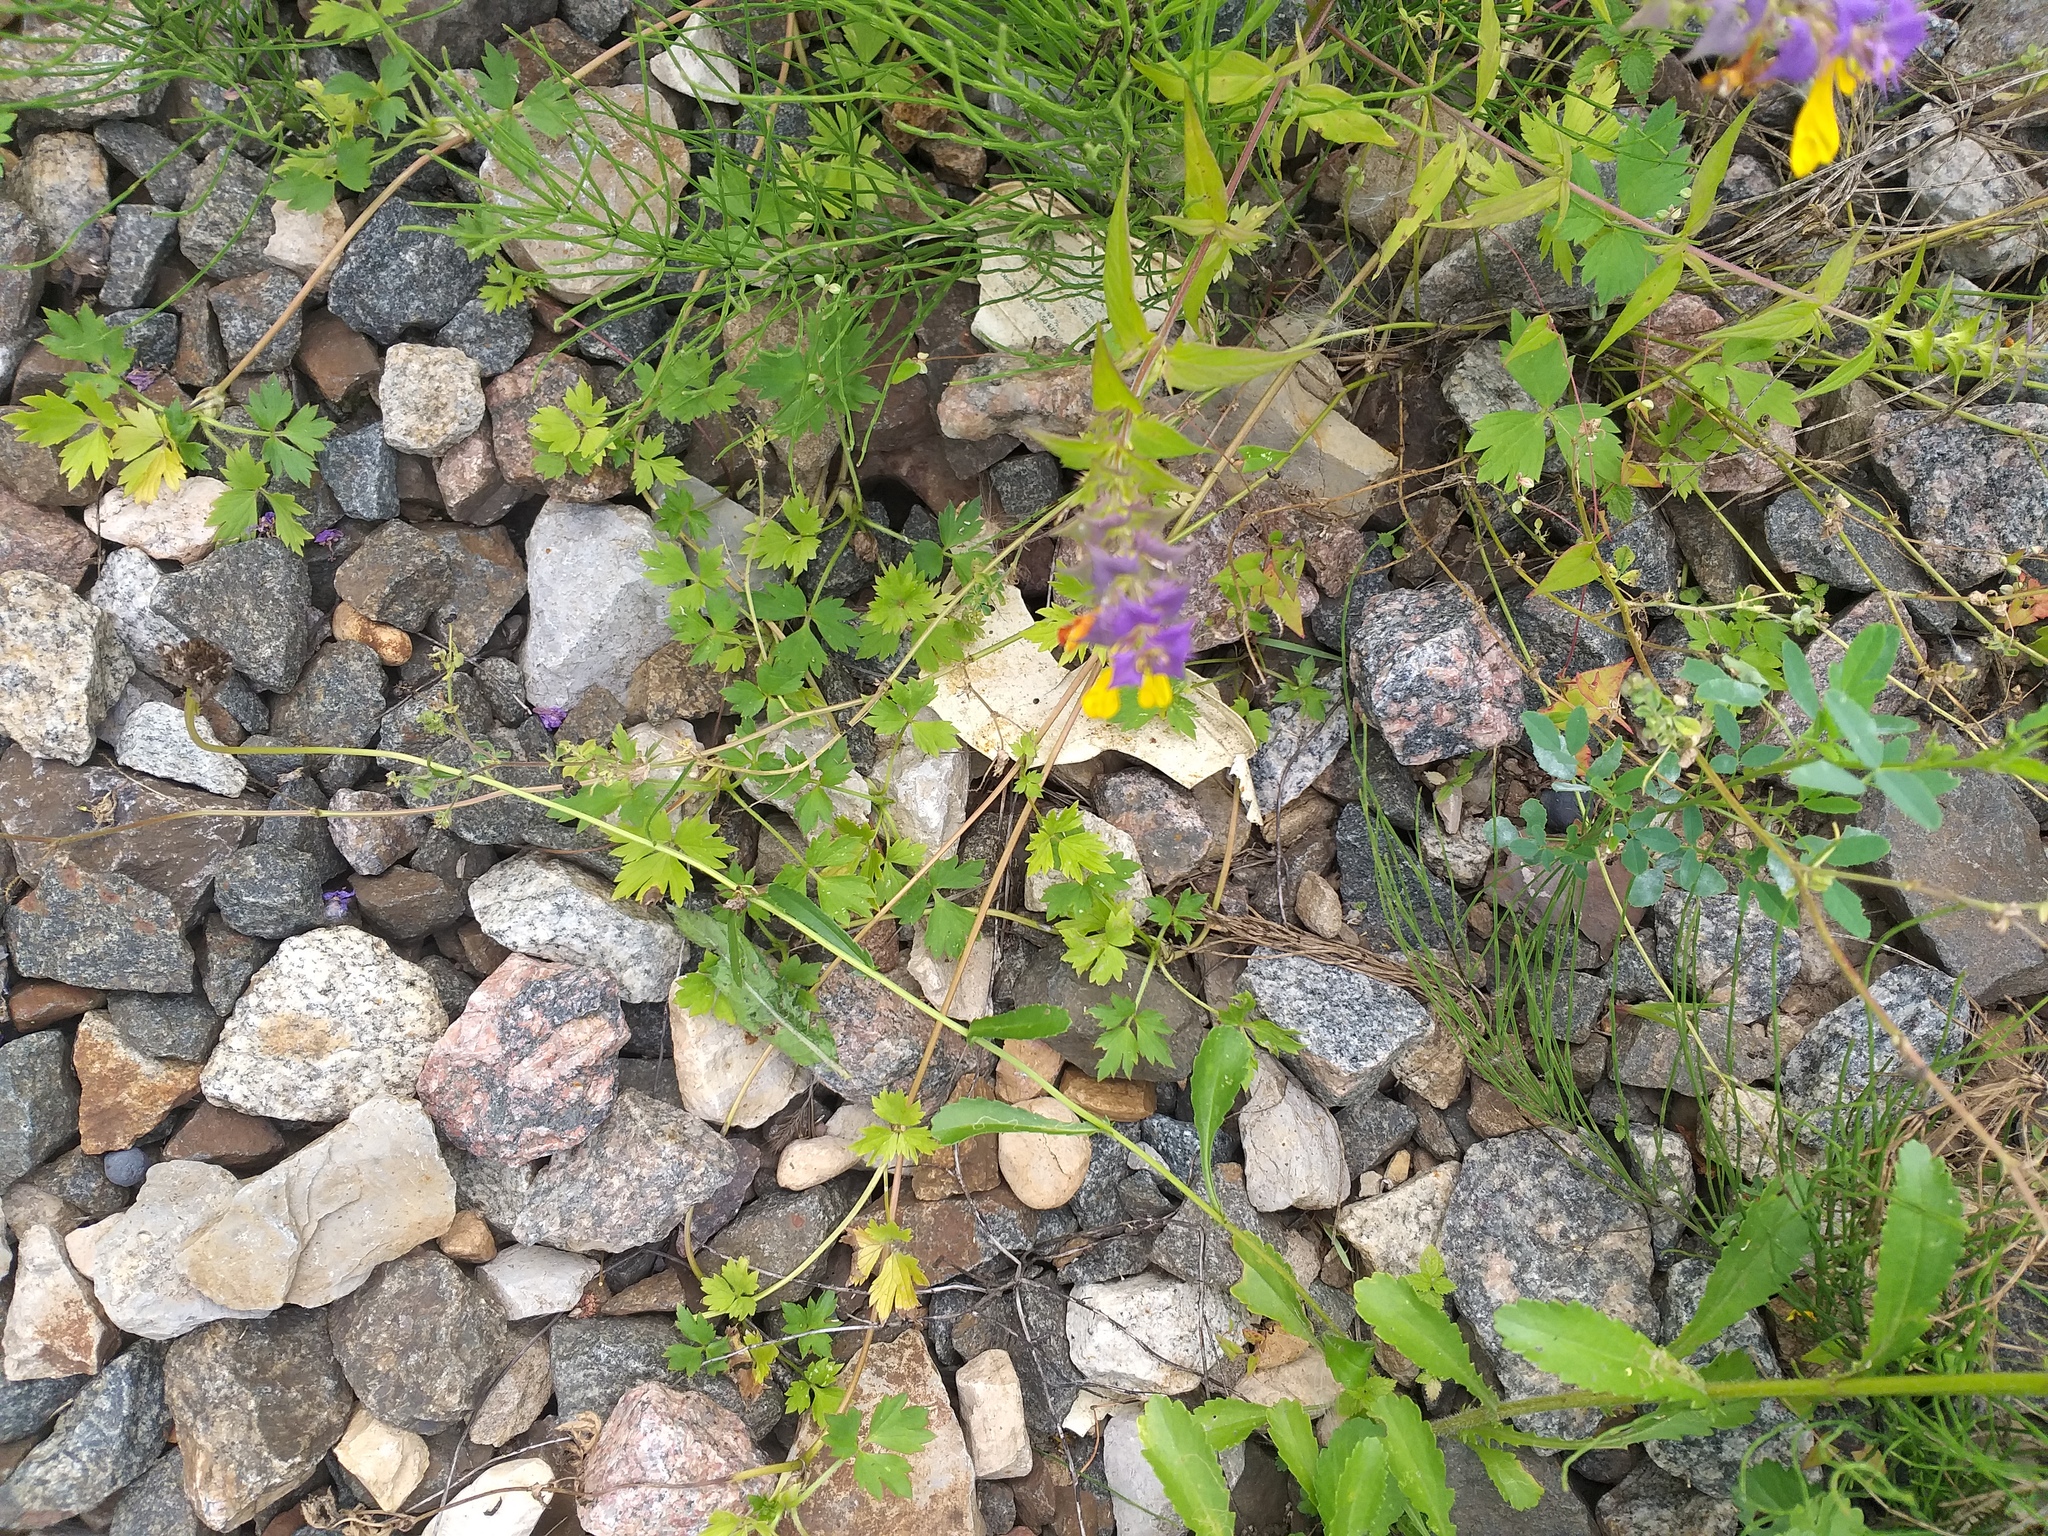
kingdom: Plantae
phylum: Tracheophyta
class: Magnoliopsida
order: Lamiales
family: Orobanchaceae
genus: Melampyrum
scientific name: Melampyrum nemorosum
